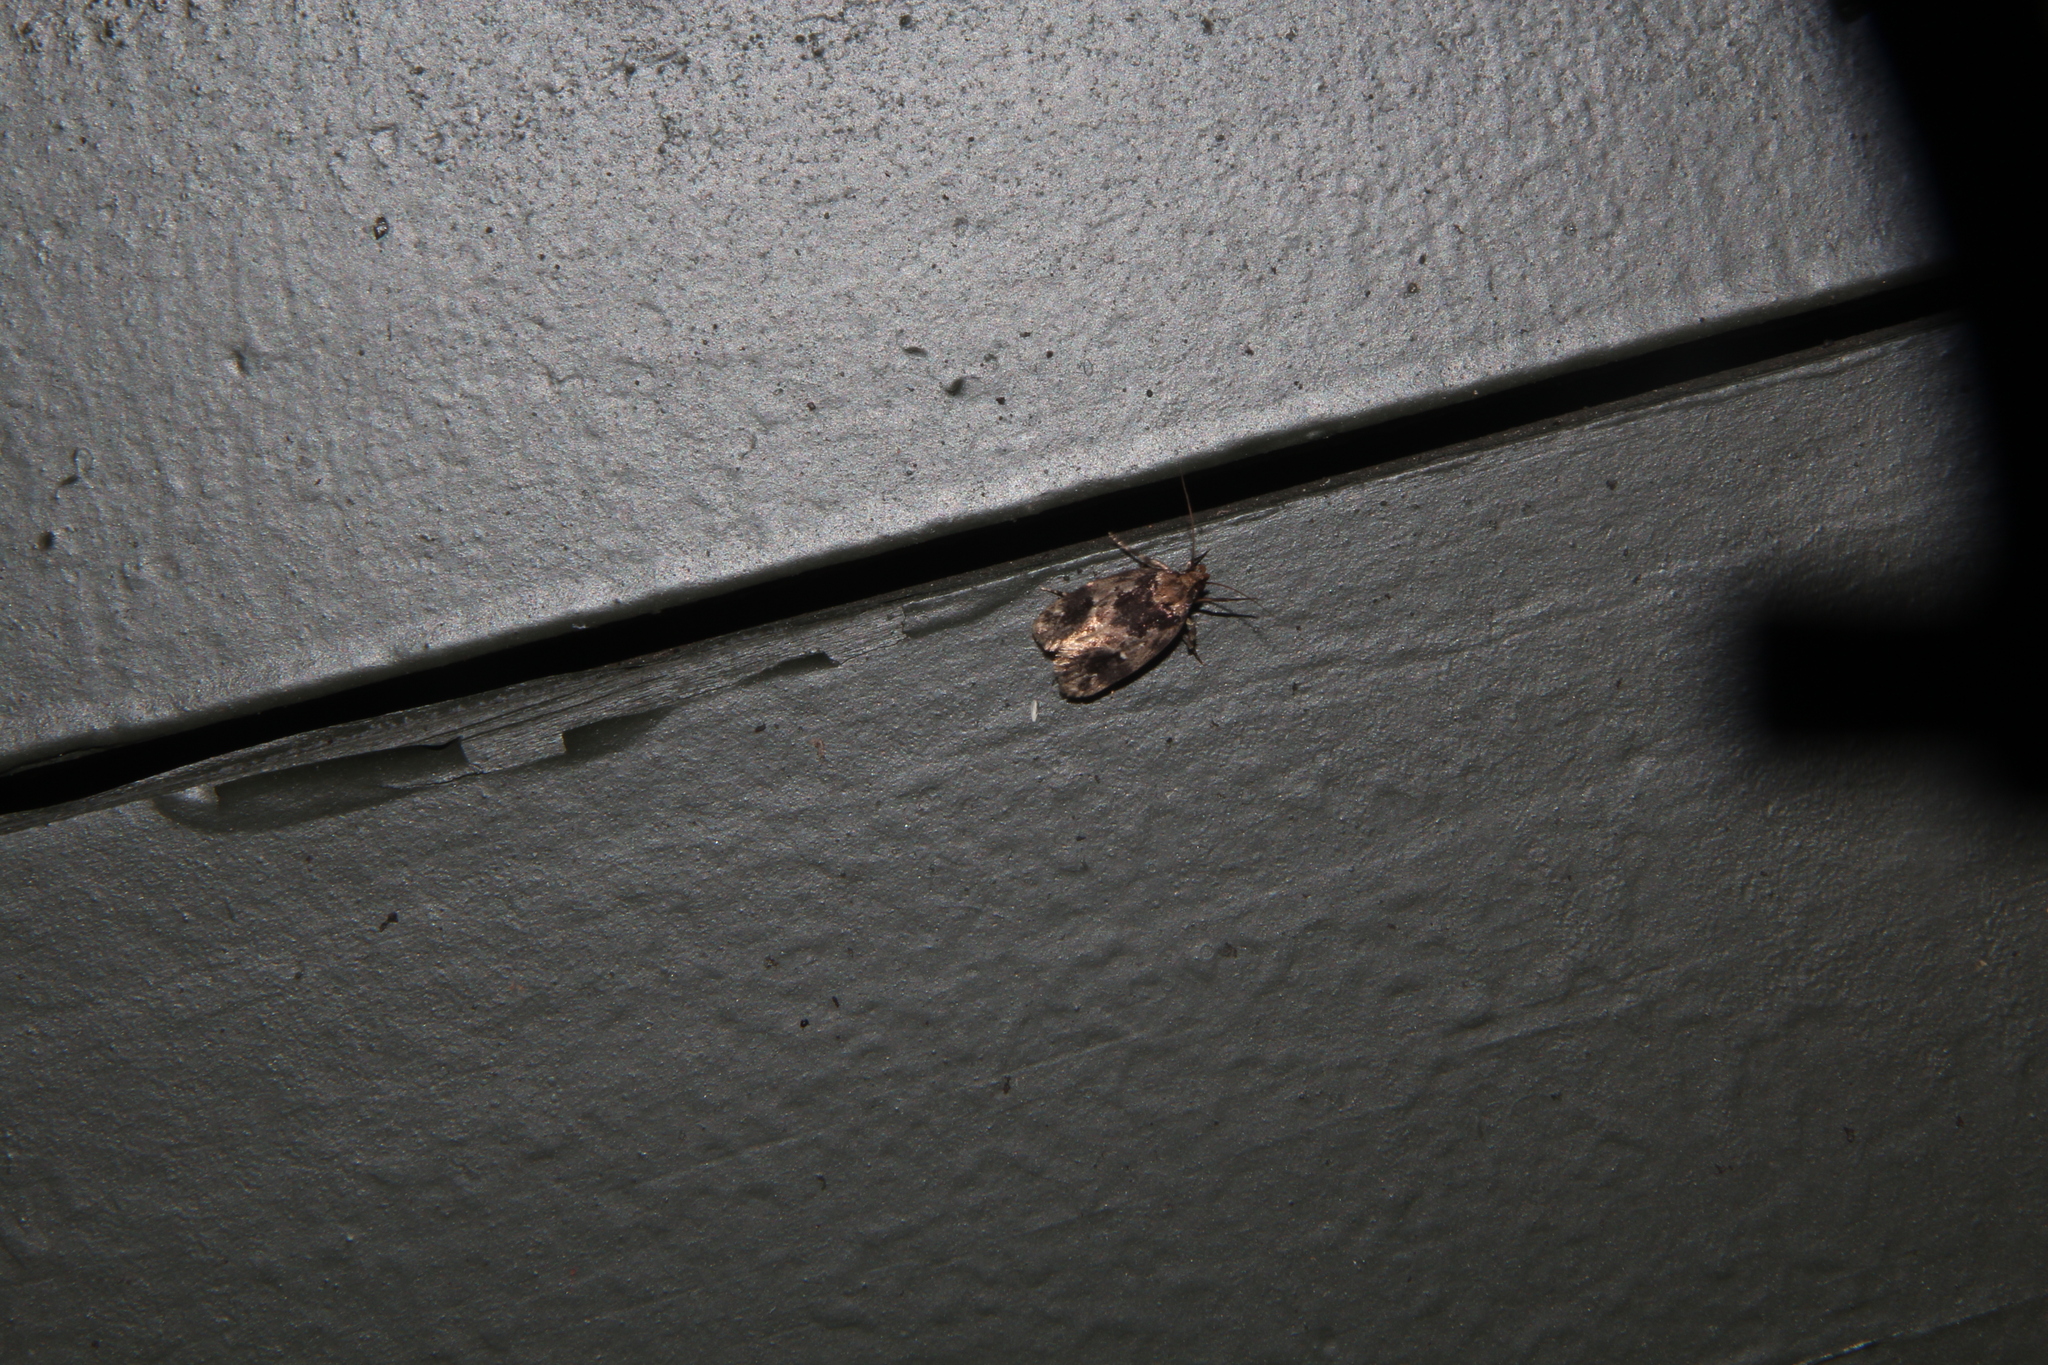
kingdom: Animalia
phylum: Arthropoda
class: Insecta
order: Lepidoptera
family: Oecophoridae
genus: Barea
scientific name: Barea consignatella
